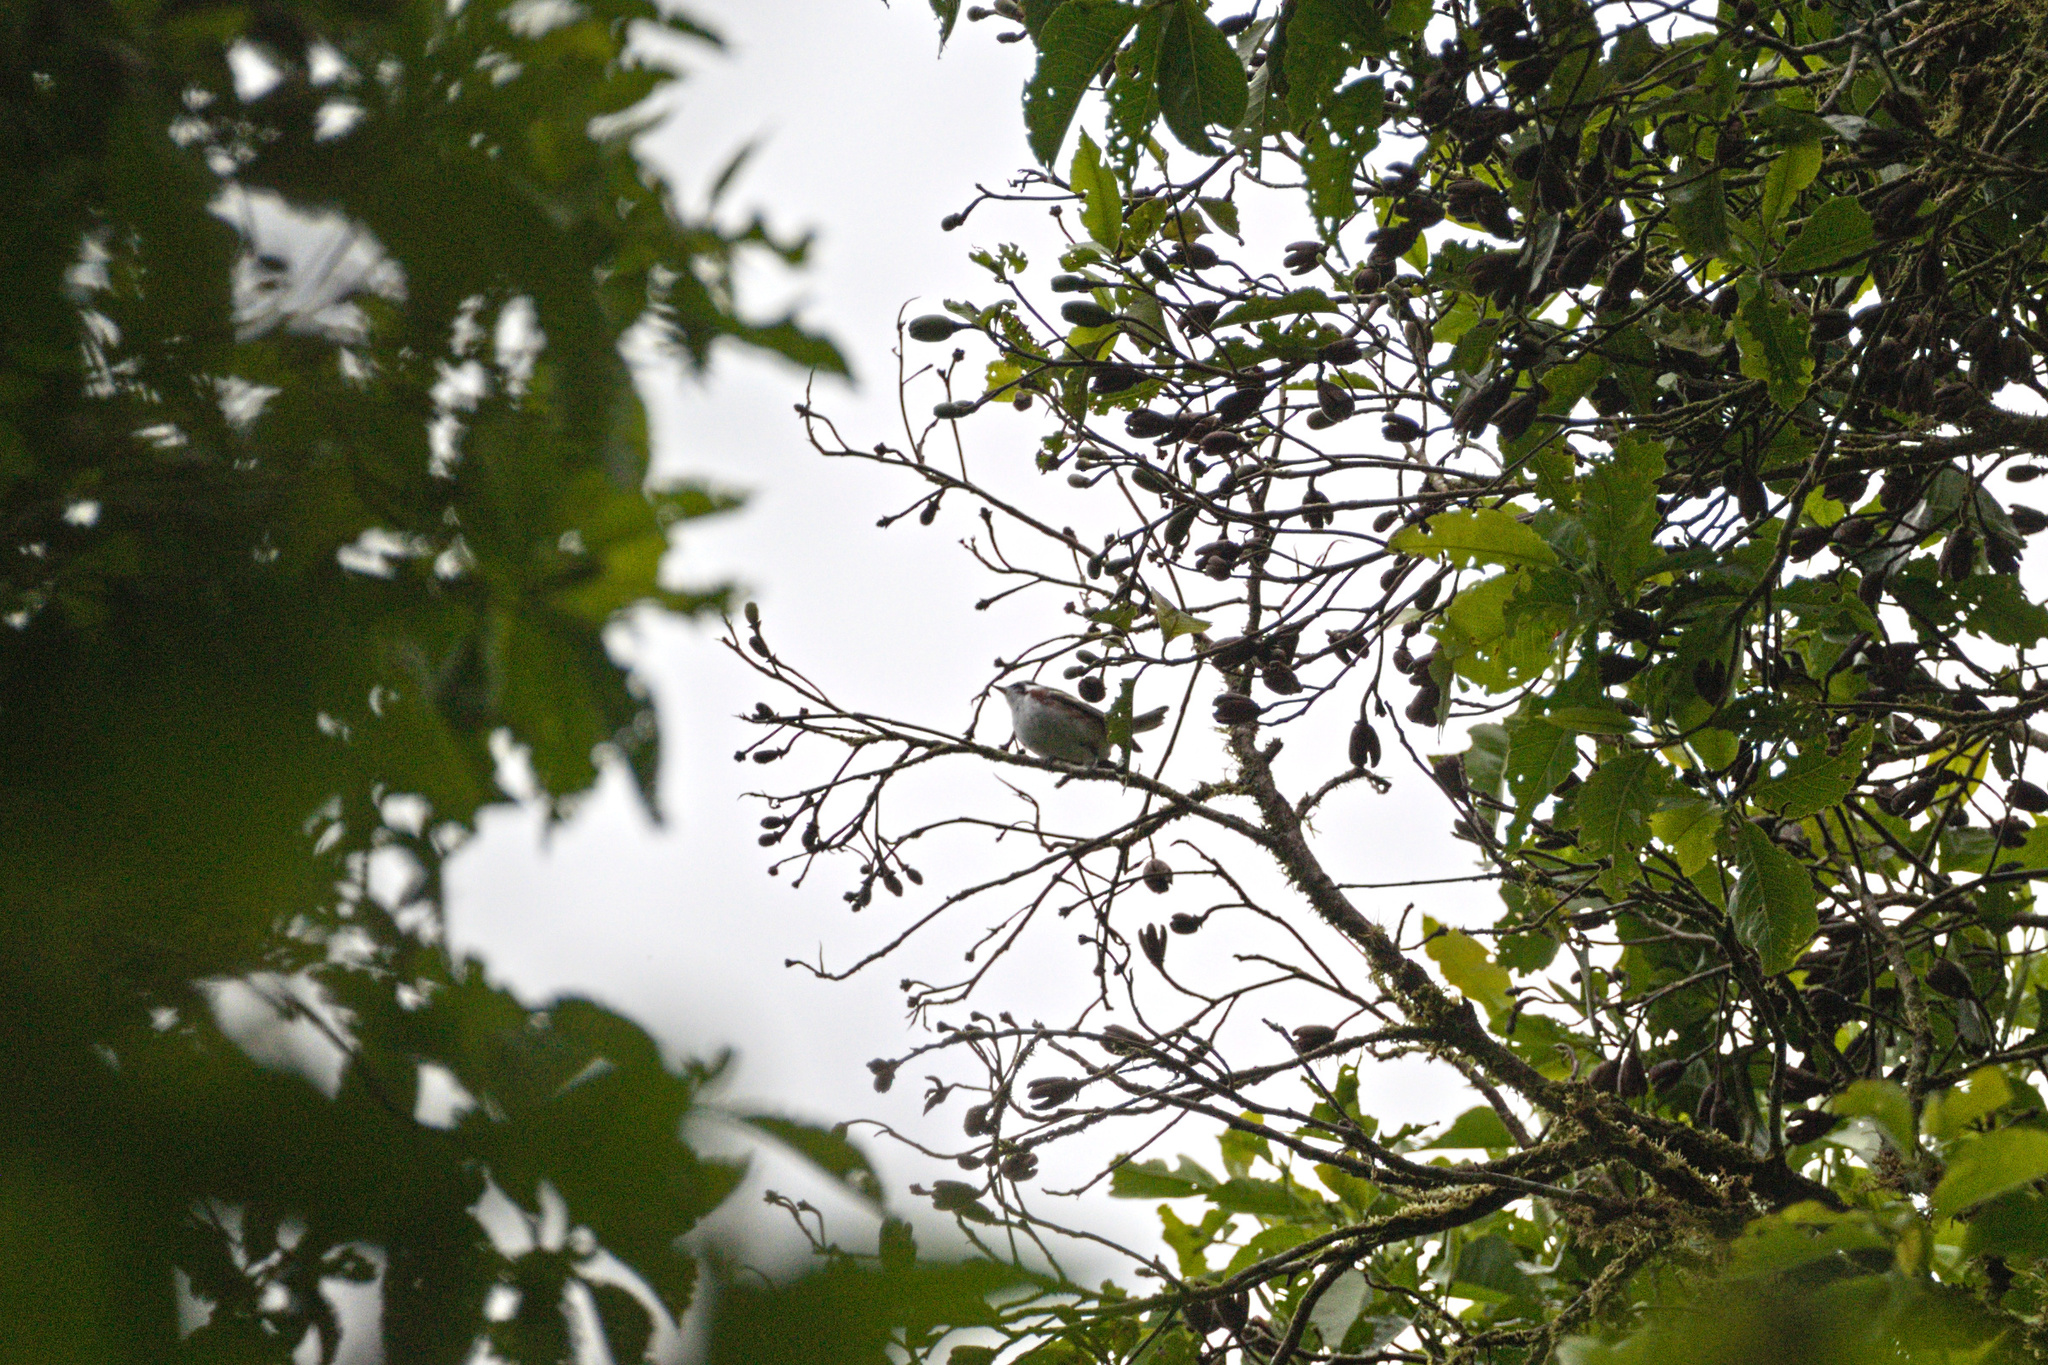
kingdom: Animalia
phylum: Chordata
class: Aves
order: Passeriformes
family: Parulidae
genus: Setophaga
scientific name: Setophaga pensylvanica
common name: Chestnut-sided warbler
